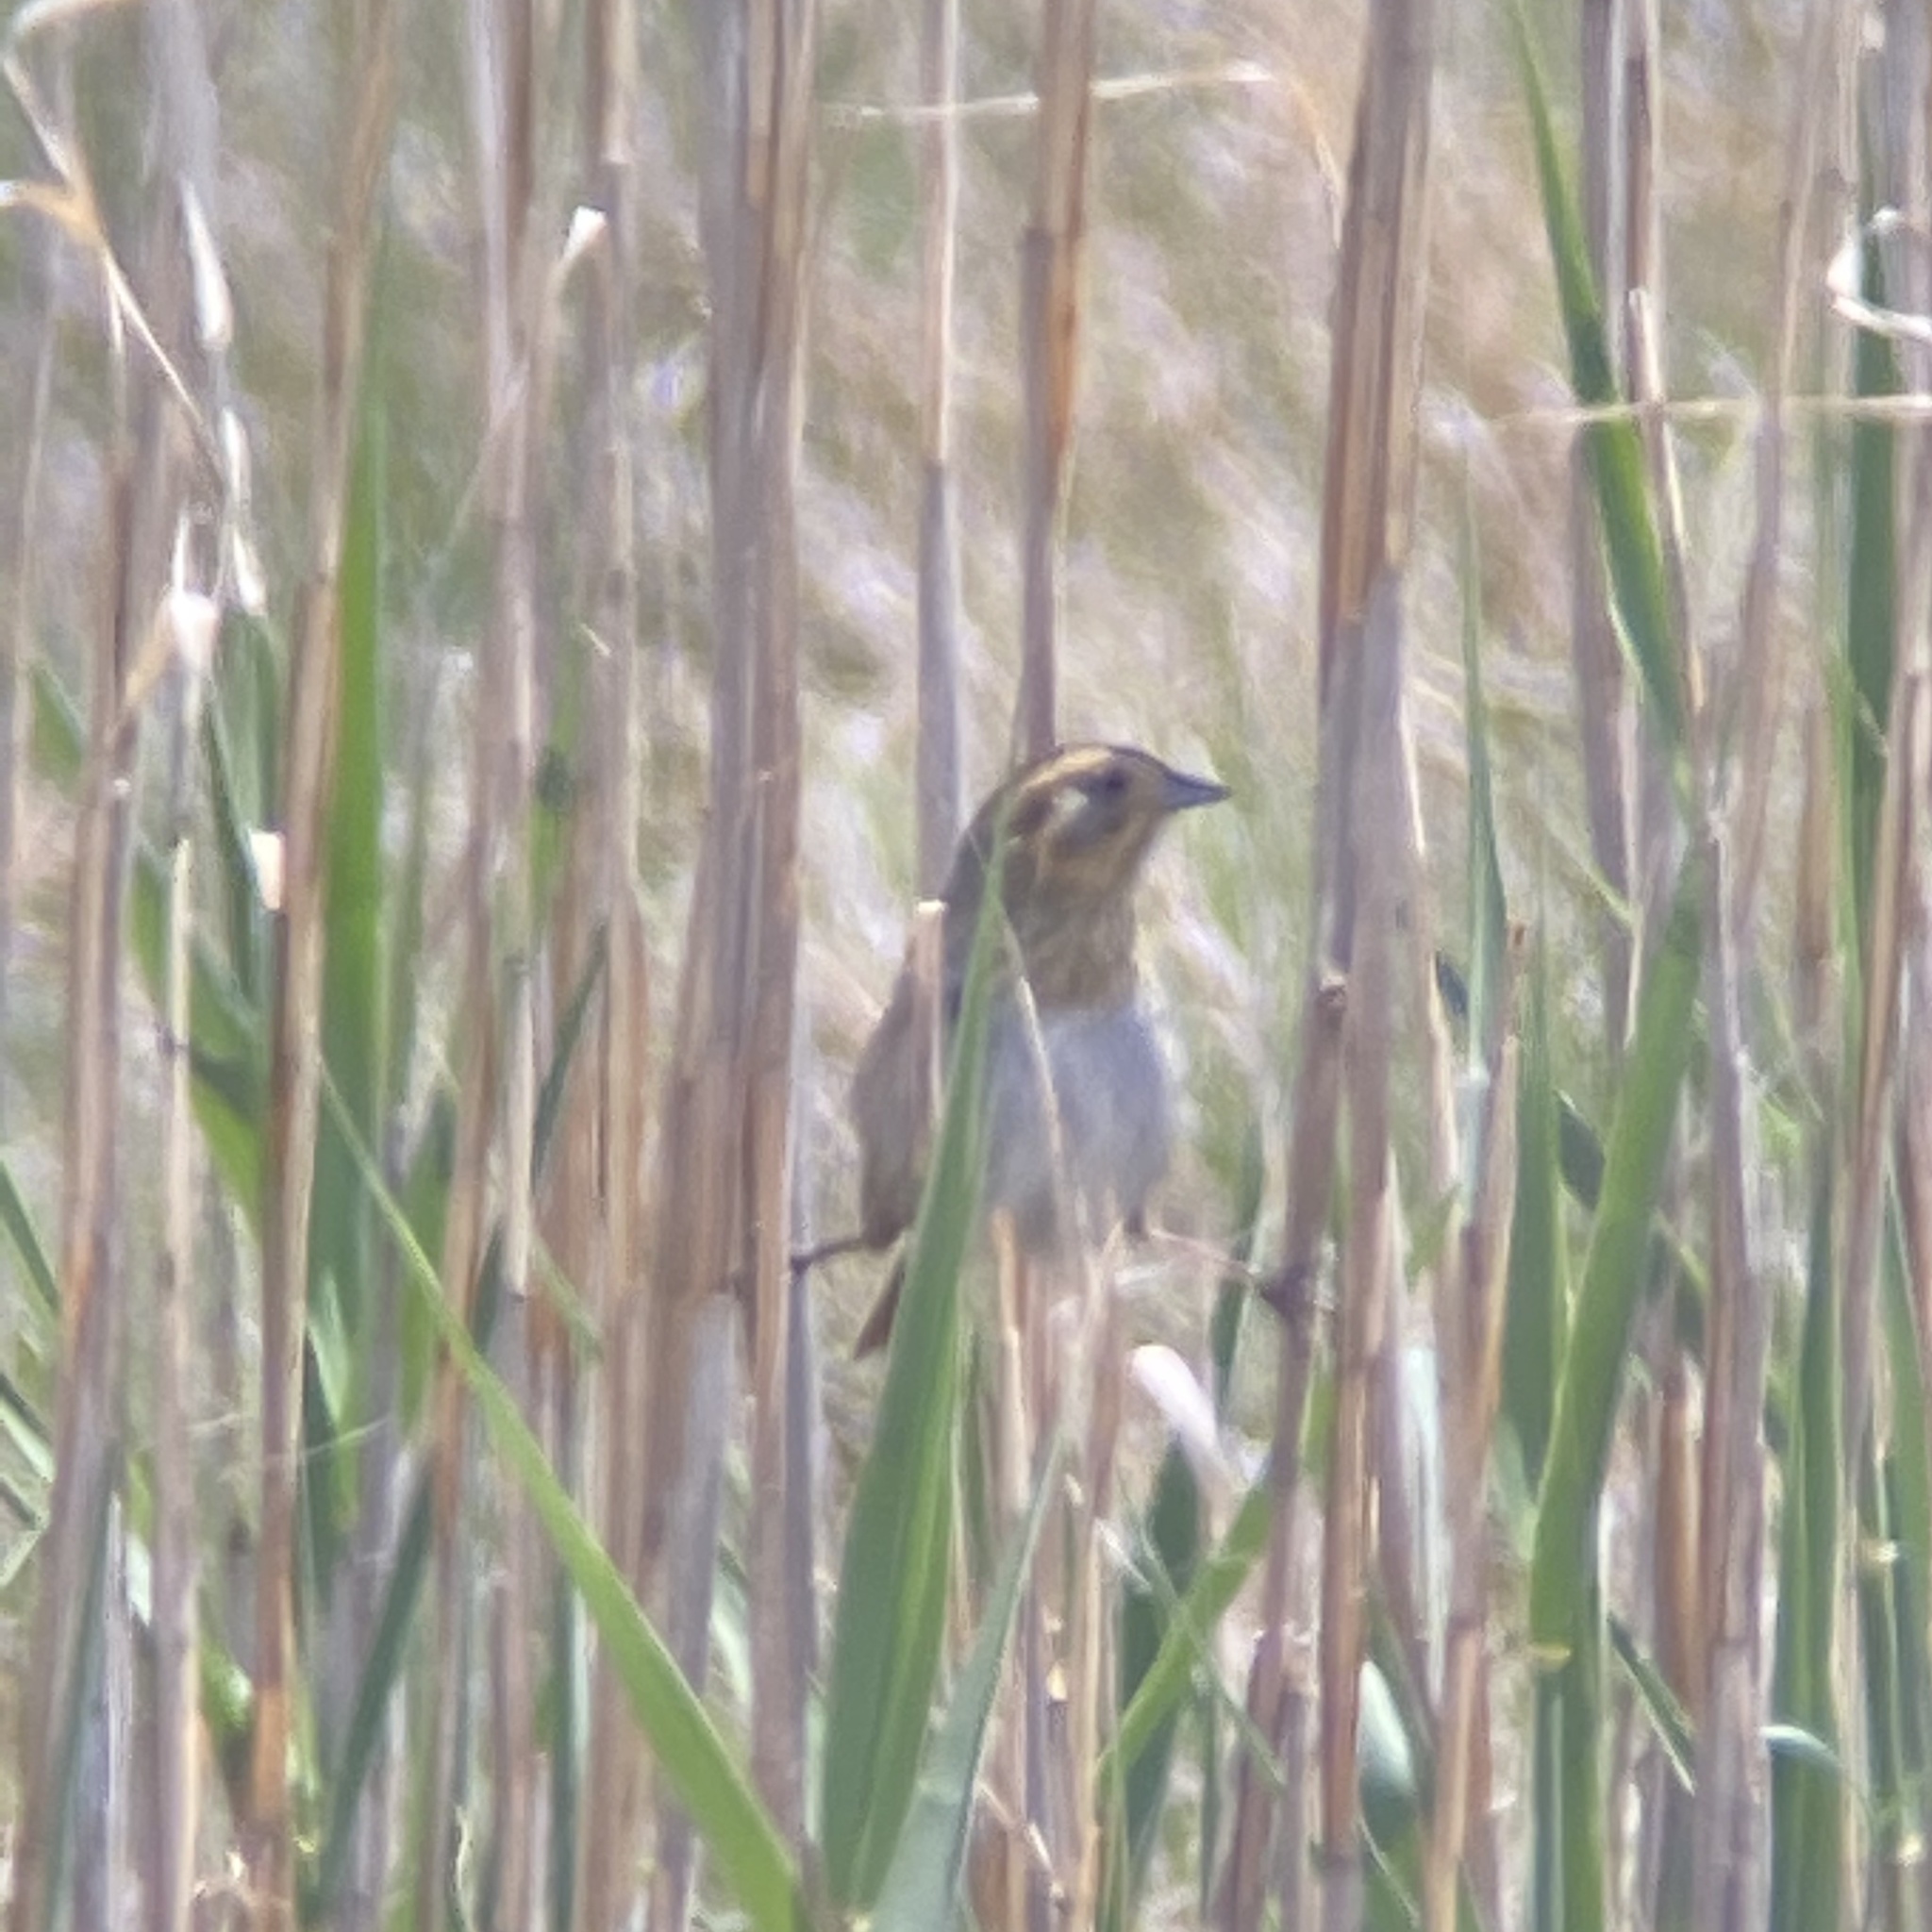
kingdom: Animalia
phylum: Chordata
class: Aves
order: Passeriformes
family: Passerellidae
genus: Ammospiza
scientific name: Ammospiza nelsoni
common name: Nelson's sparrow
